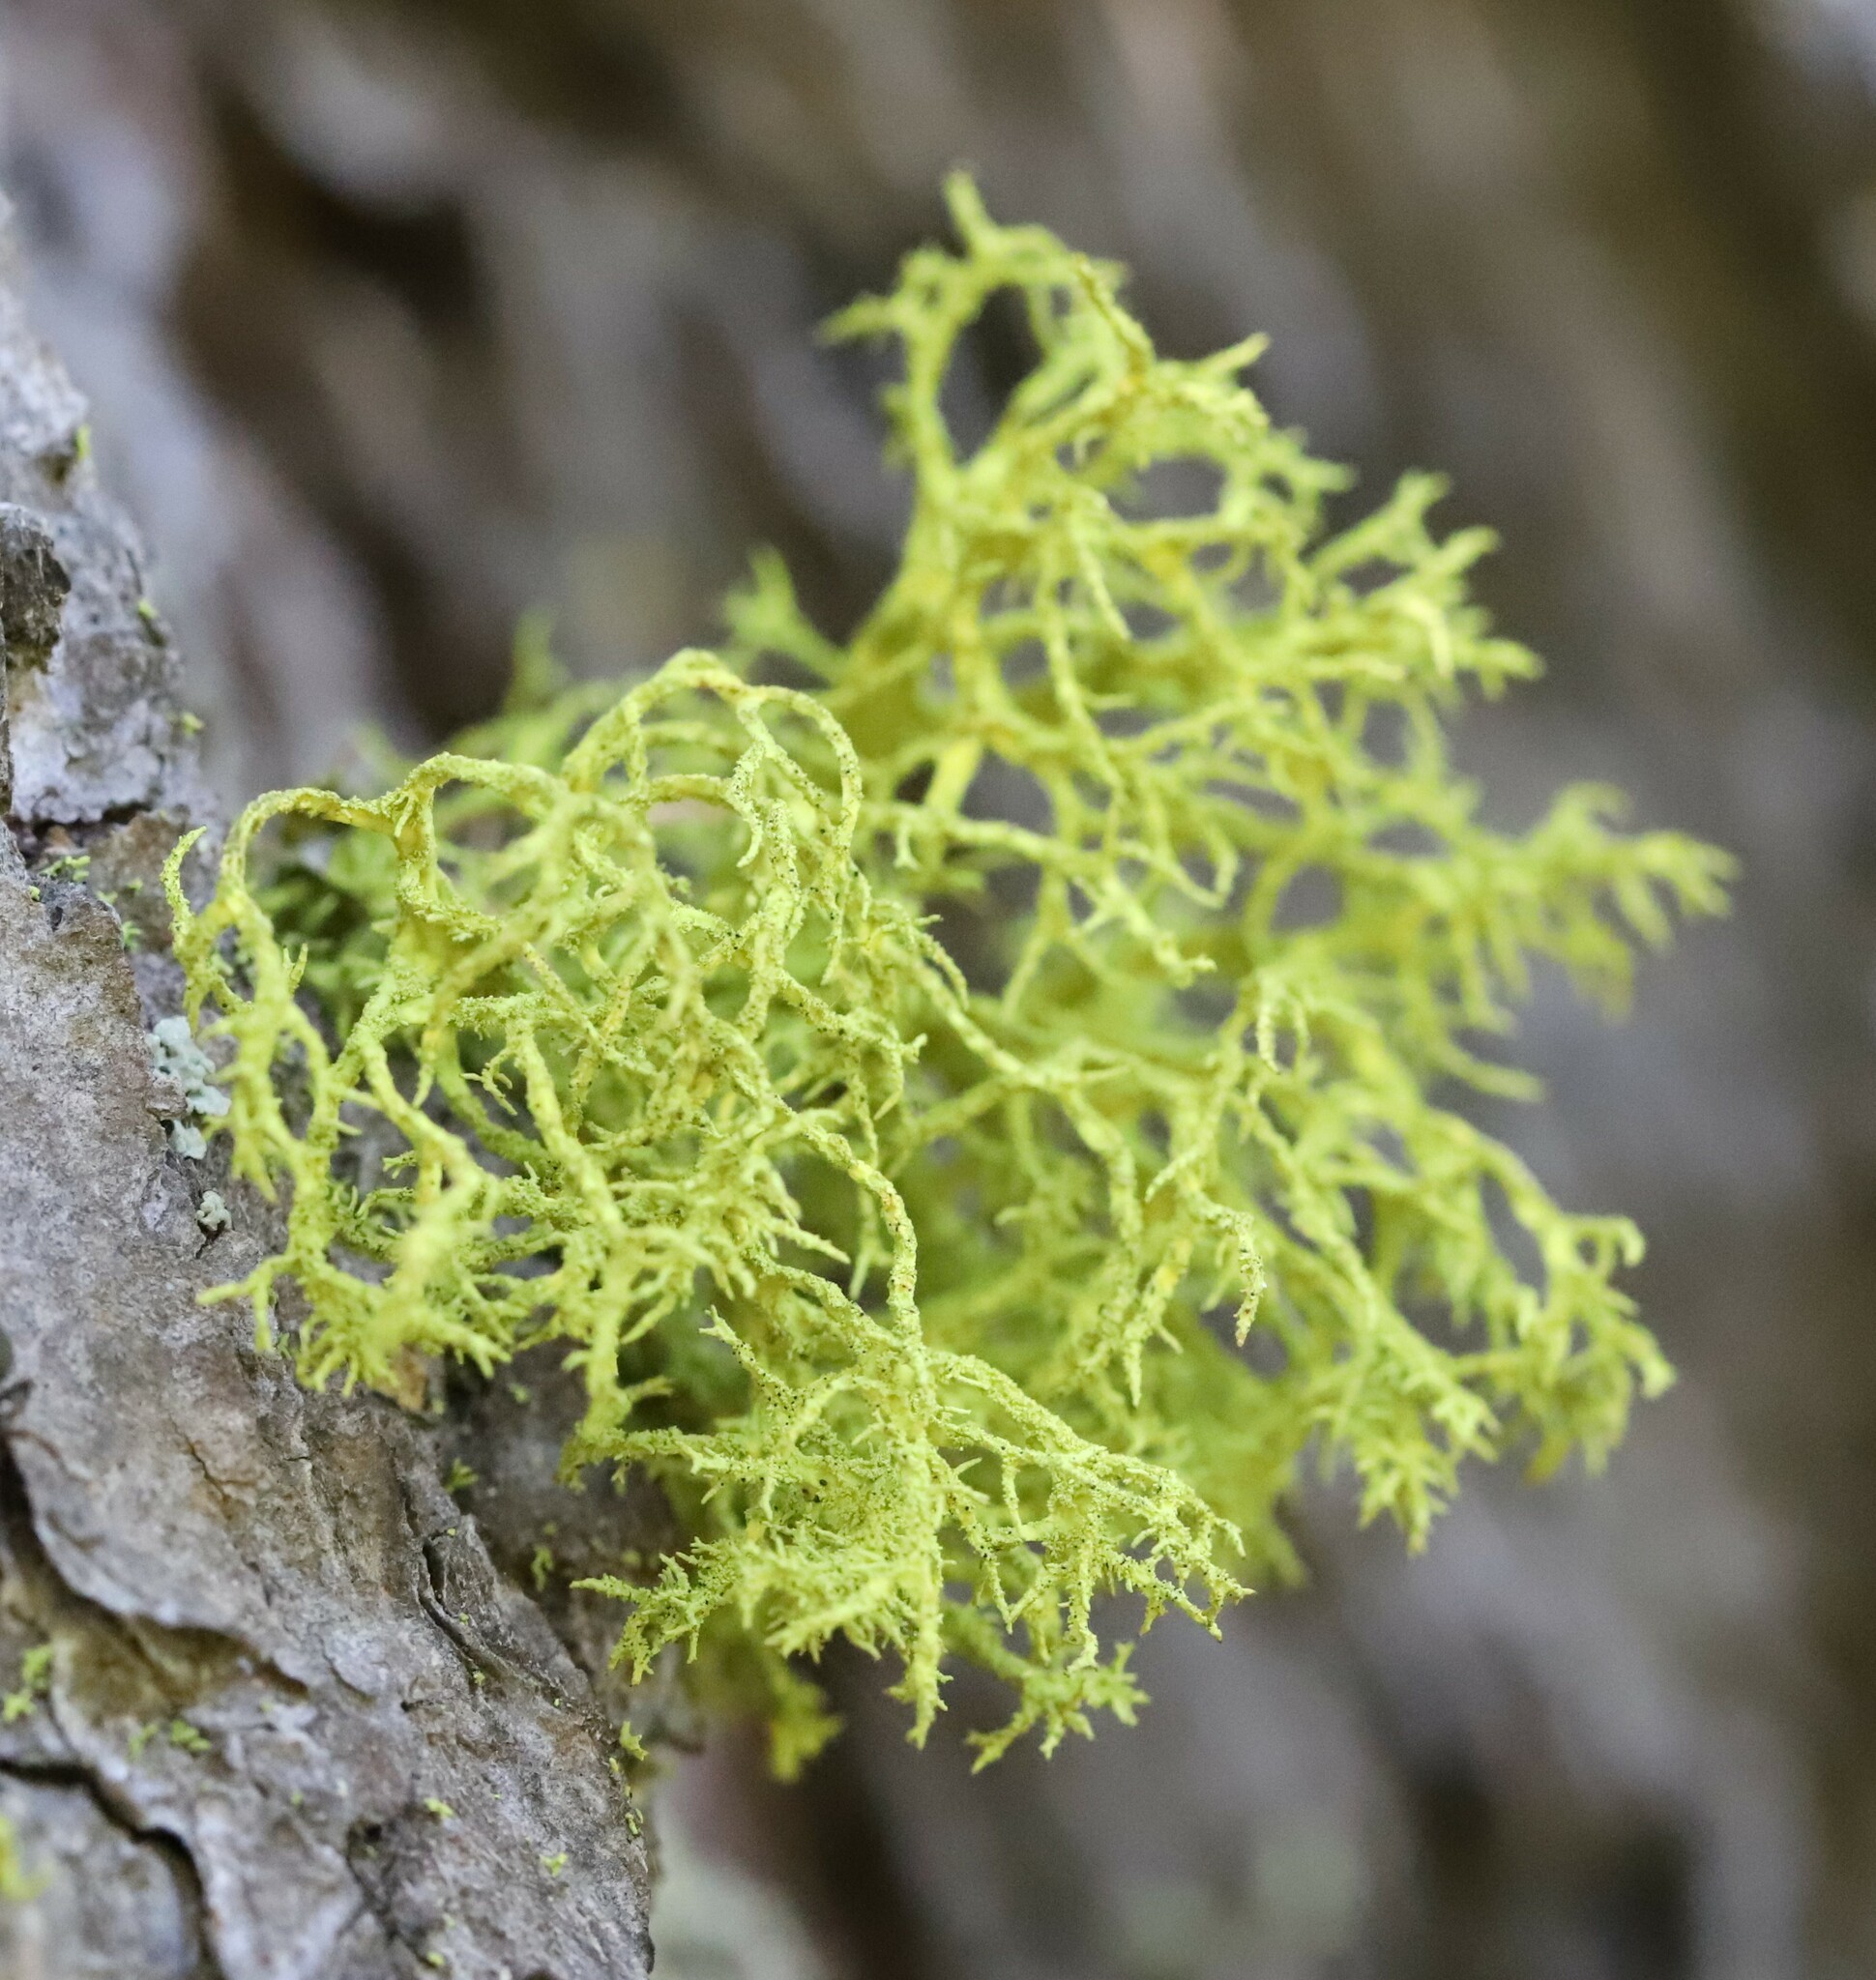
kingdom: Fungi
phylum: Ascomycota
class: Lecanoromycetes
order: Lecanorales
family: Parmeliaceae
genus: Letharia
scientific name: Letharia vulpina
